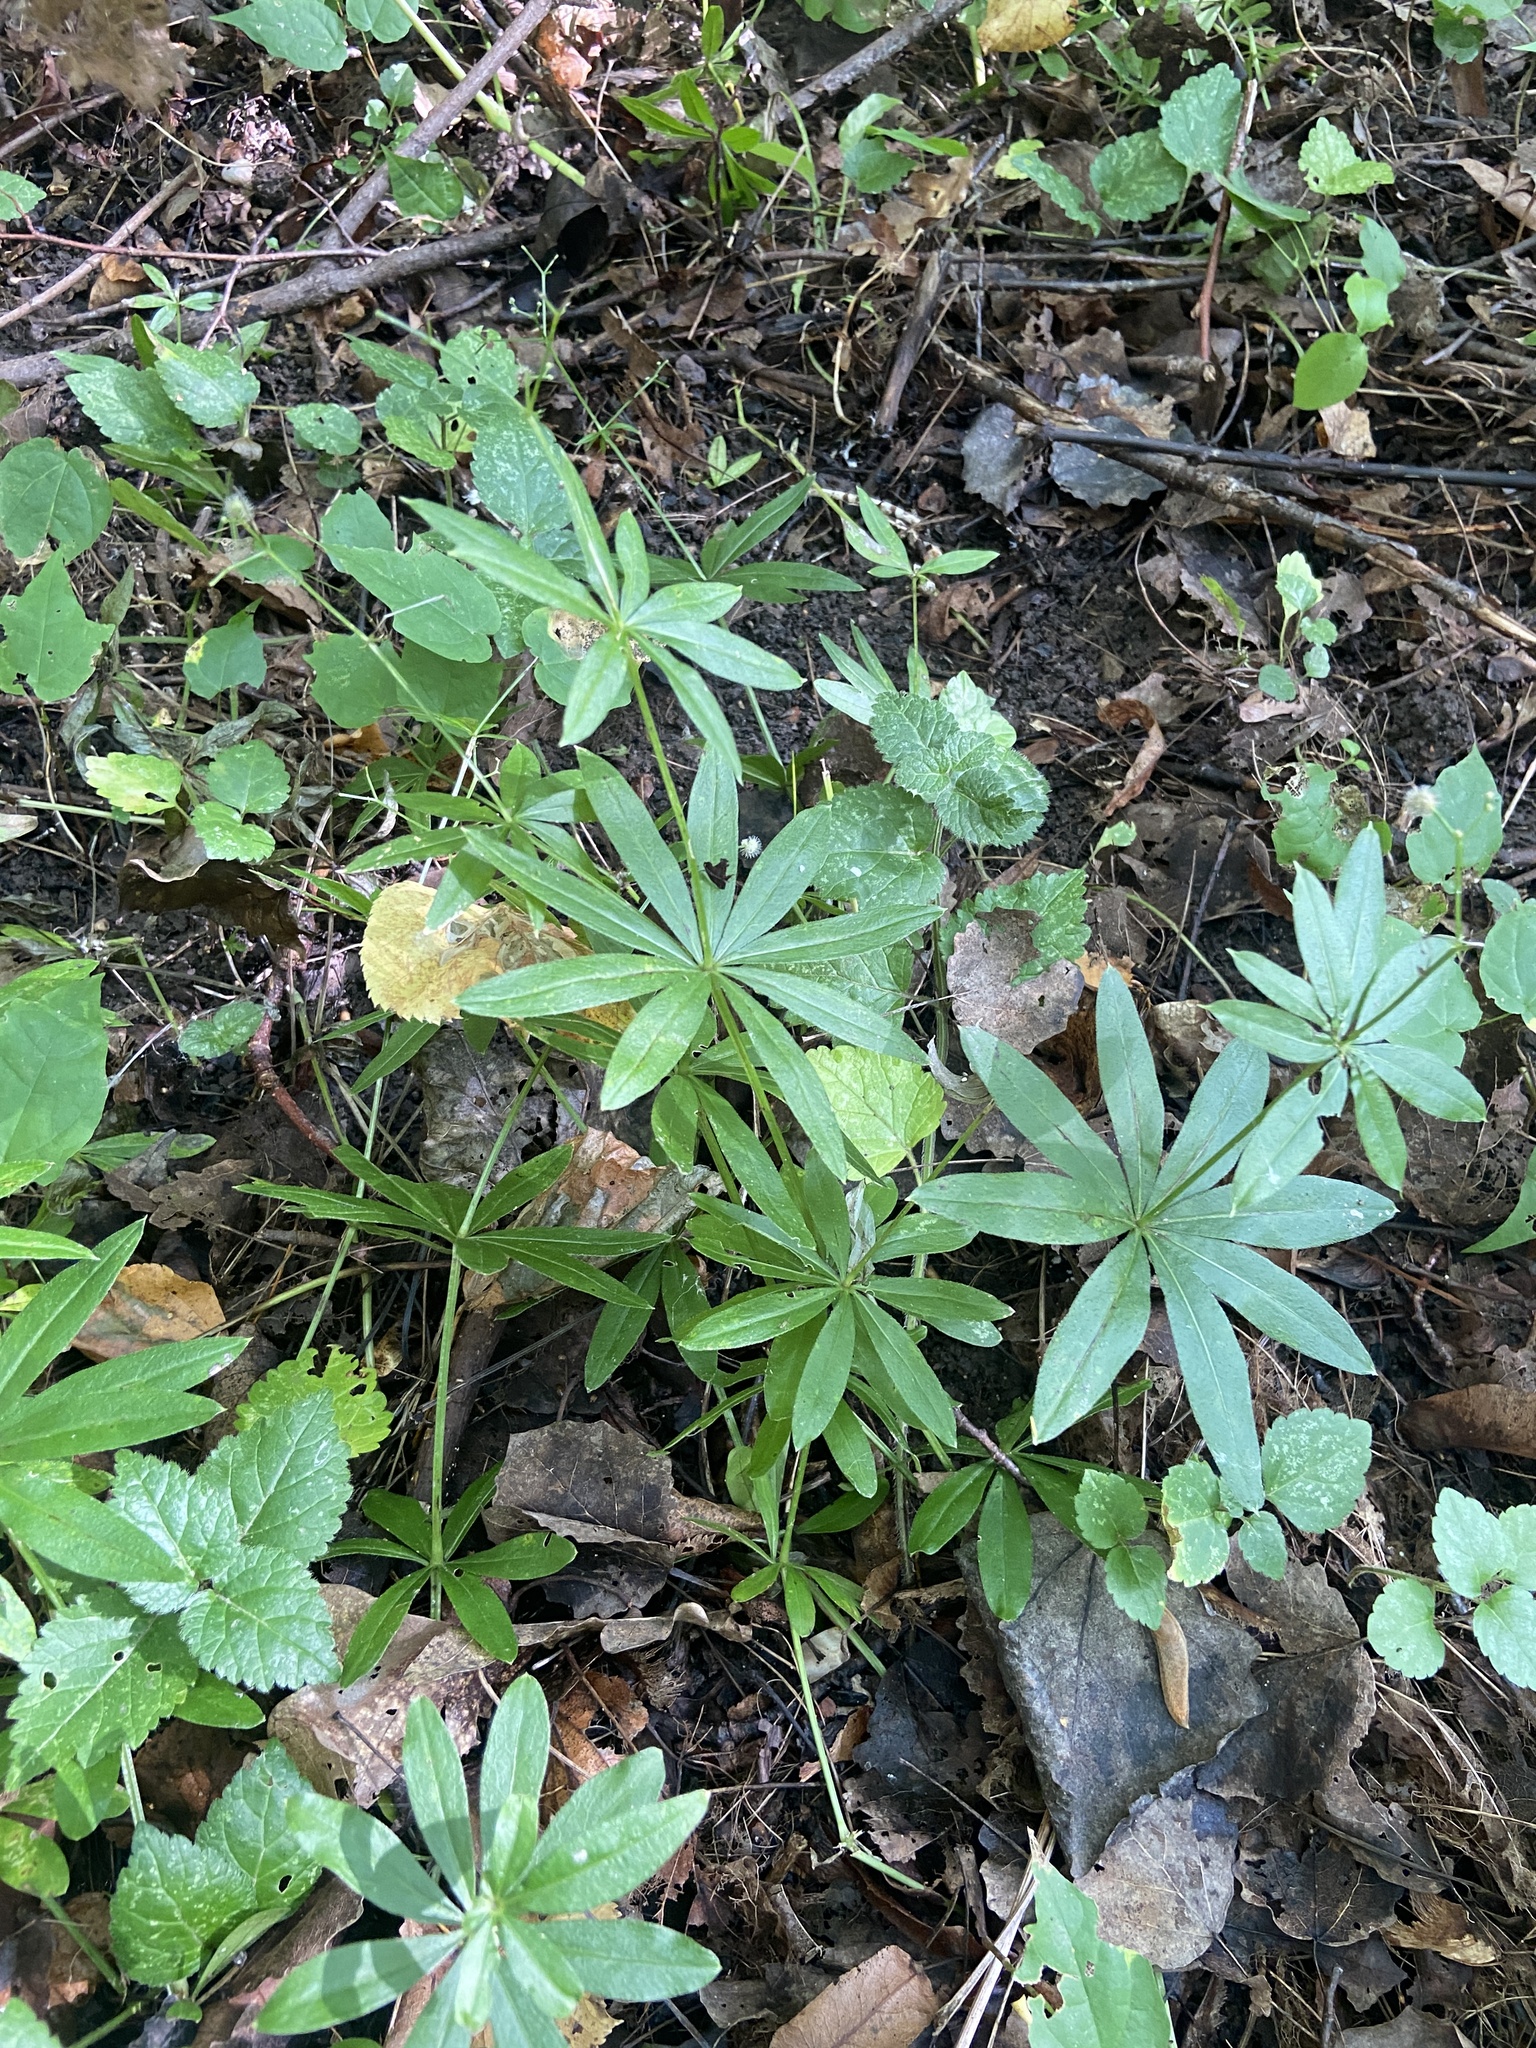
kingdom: Plantae
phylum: Tracheophyta
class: Magnoliopsida
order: Gentianales
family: Rubiaceae
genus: Galium
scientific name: Galium odoratum
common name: Sweet woodruff
